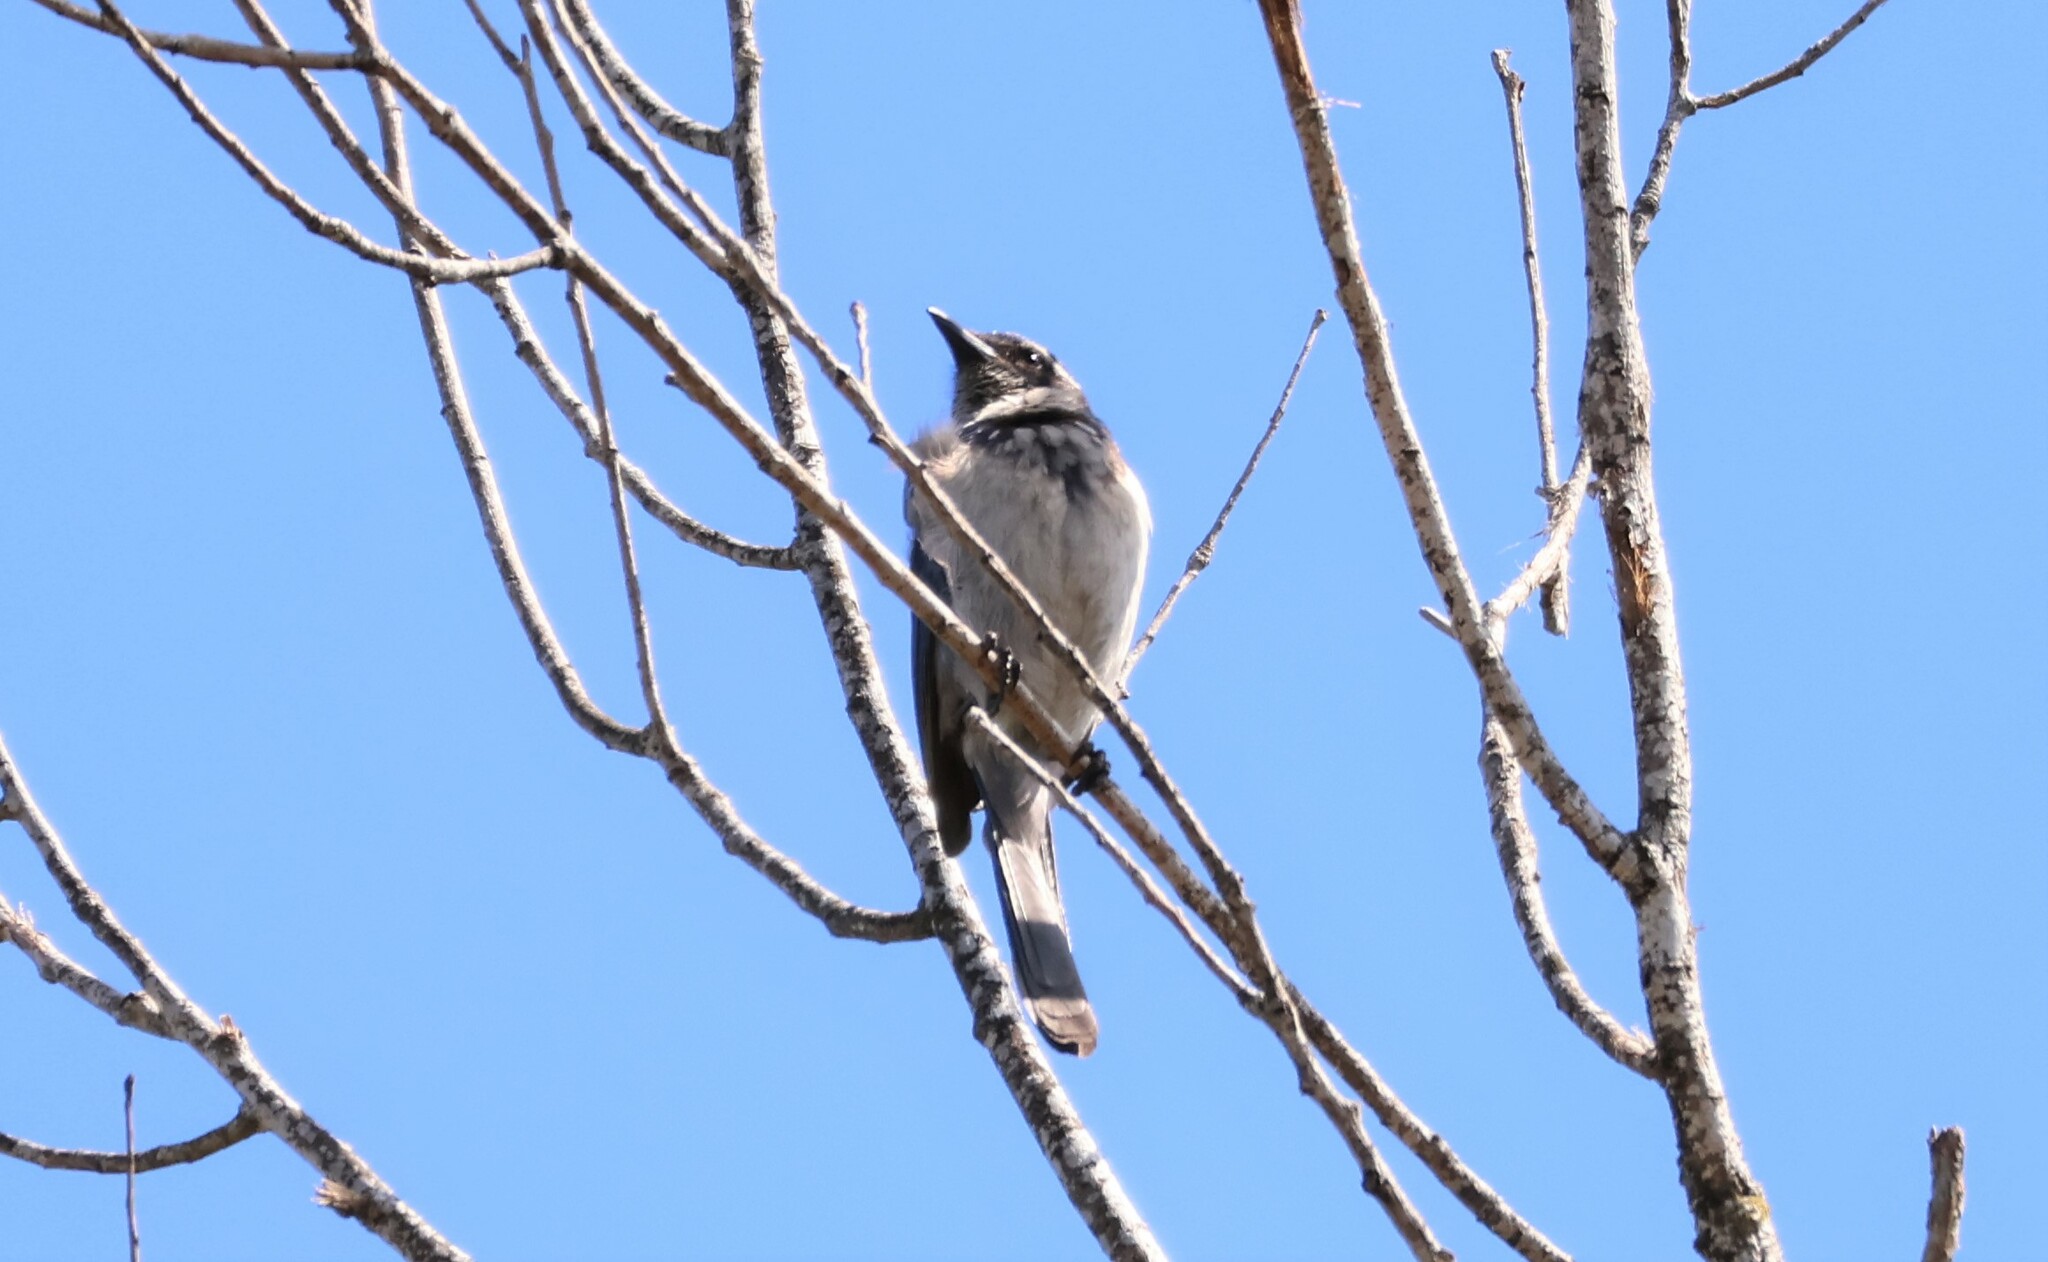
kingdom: Animalia
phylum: Chordata
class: Aves
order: Passeriformes
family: Corvidae
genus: Aphelocoma
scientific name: Aphelocoma californica
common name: California scrub-jay
